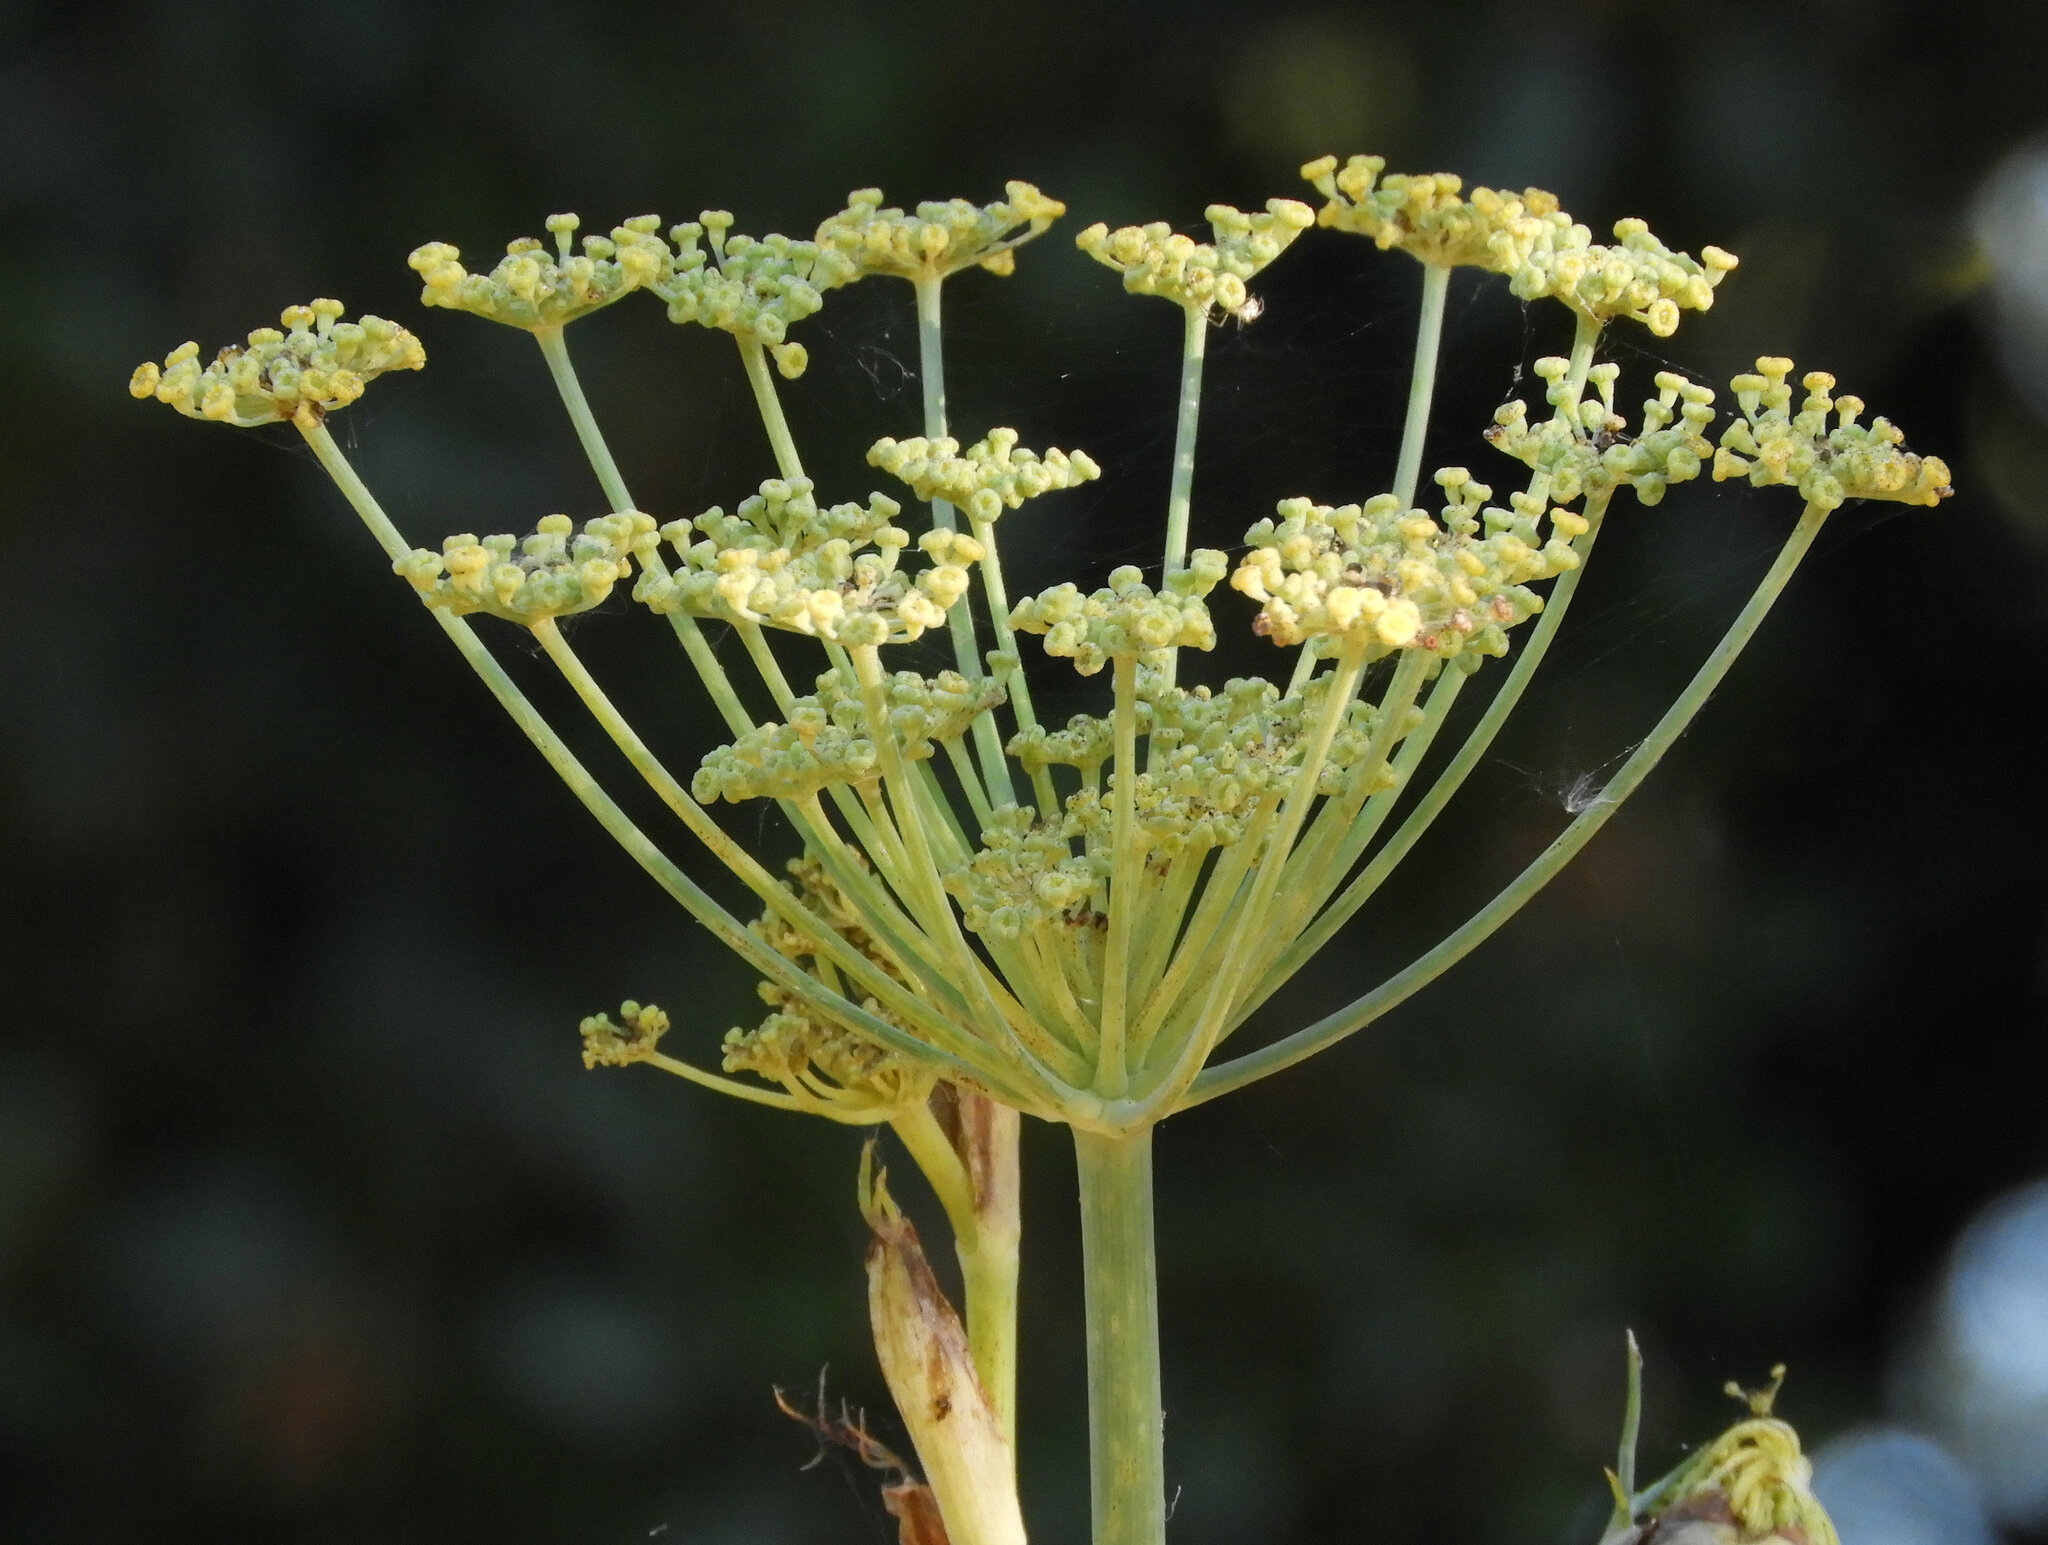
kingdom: Plantae
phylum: Tracheophyta
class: Magnoliopsida
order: Apiales
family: Apiaceae
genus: Foeniculum
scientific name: Foeniculum vulgare
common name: Fennel
